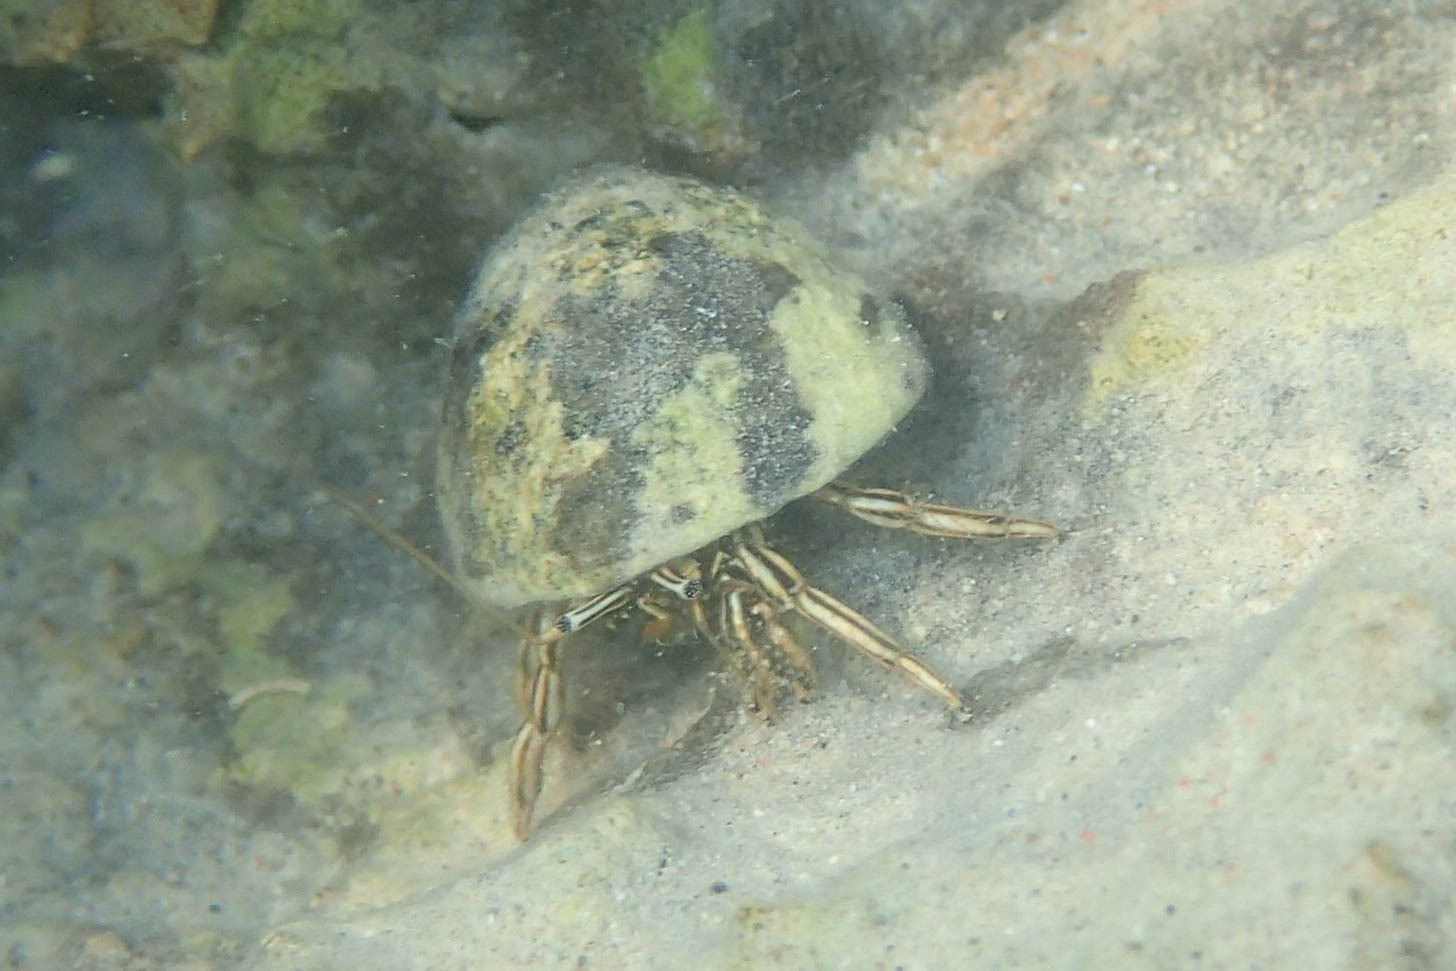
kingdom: Animalia
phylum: Arthropoda
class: Malacostraca
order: Decapoda
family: Diogenidae
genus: Clibanarius
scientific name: Clibanarius signatus
